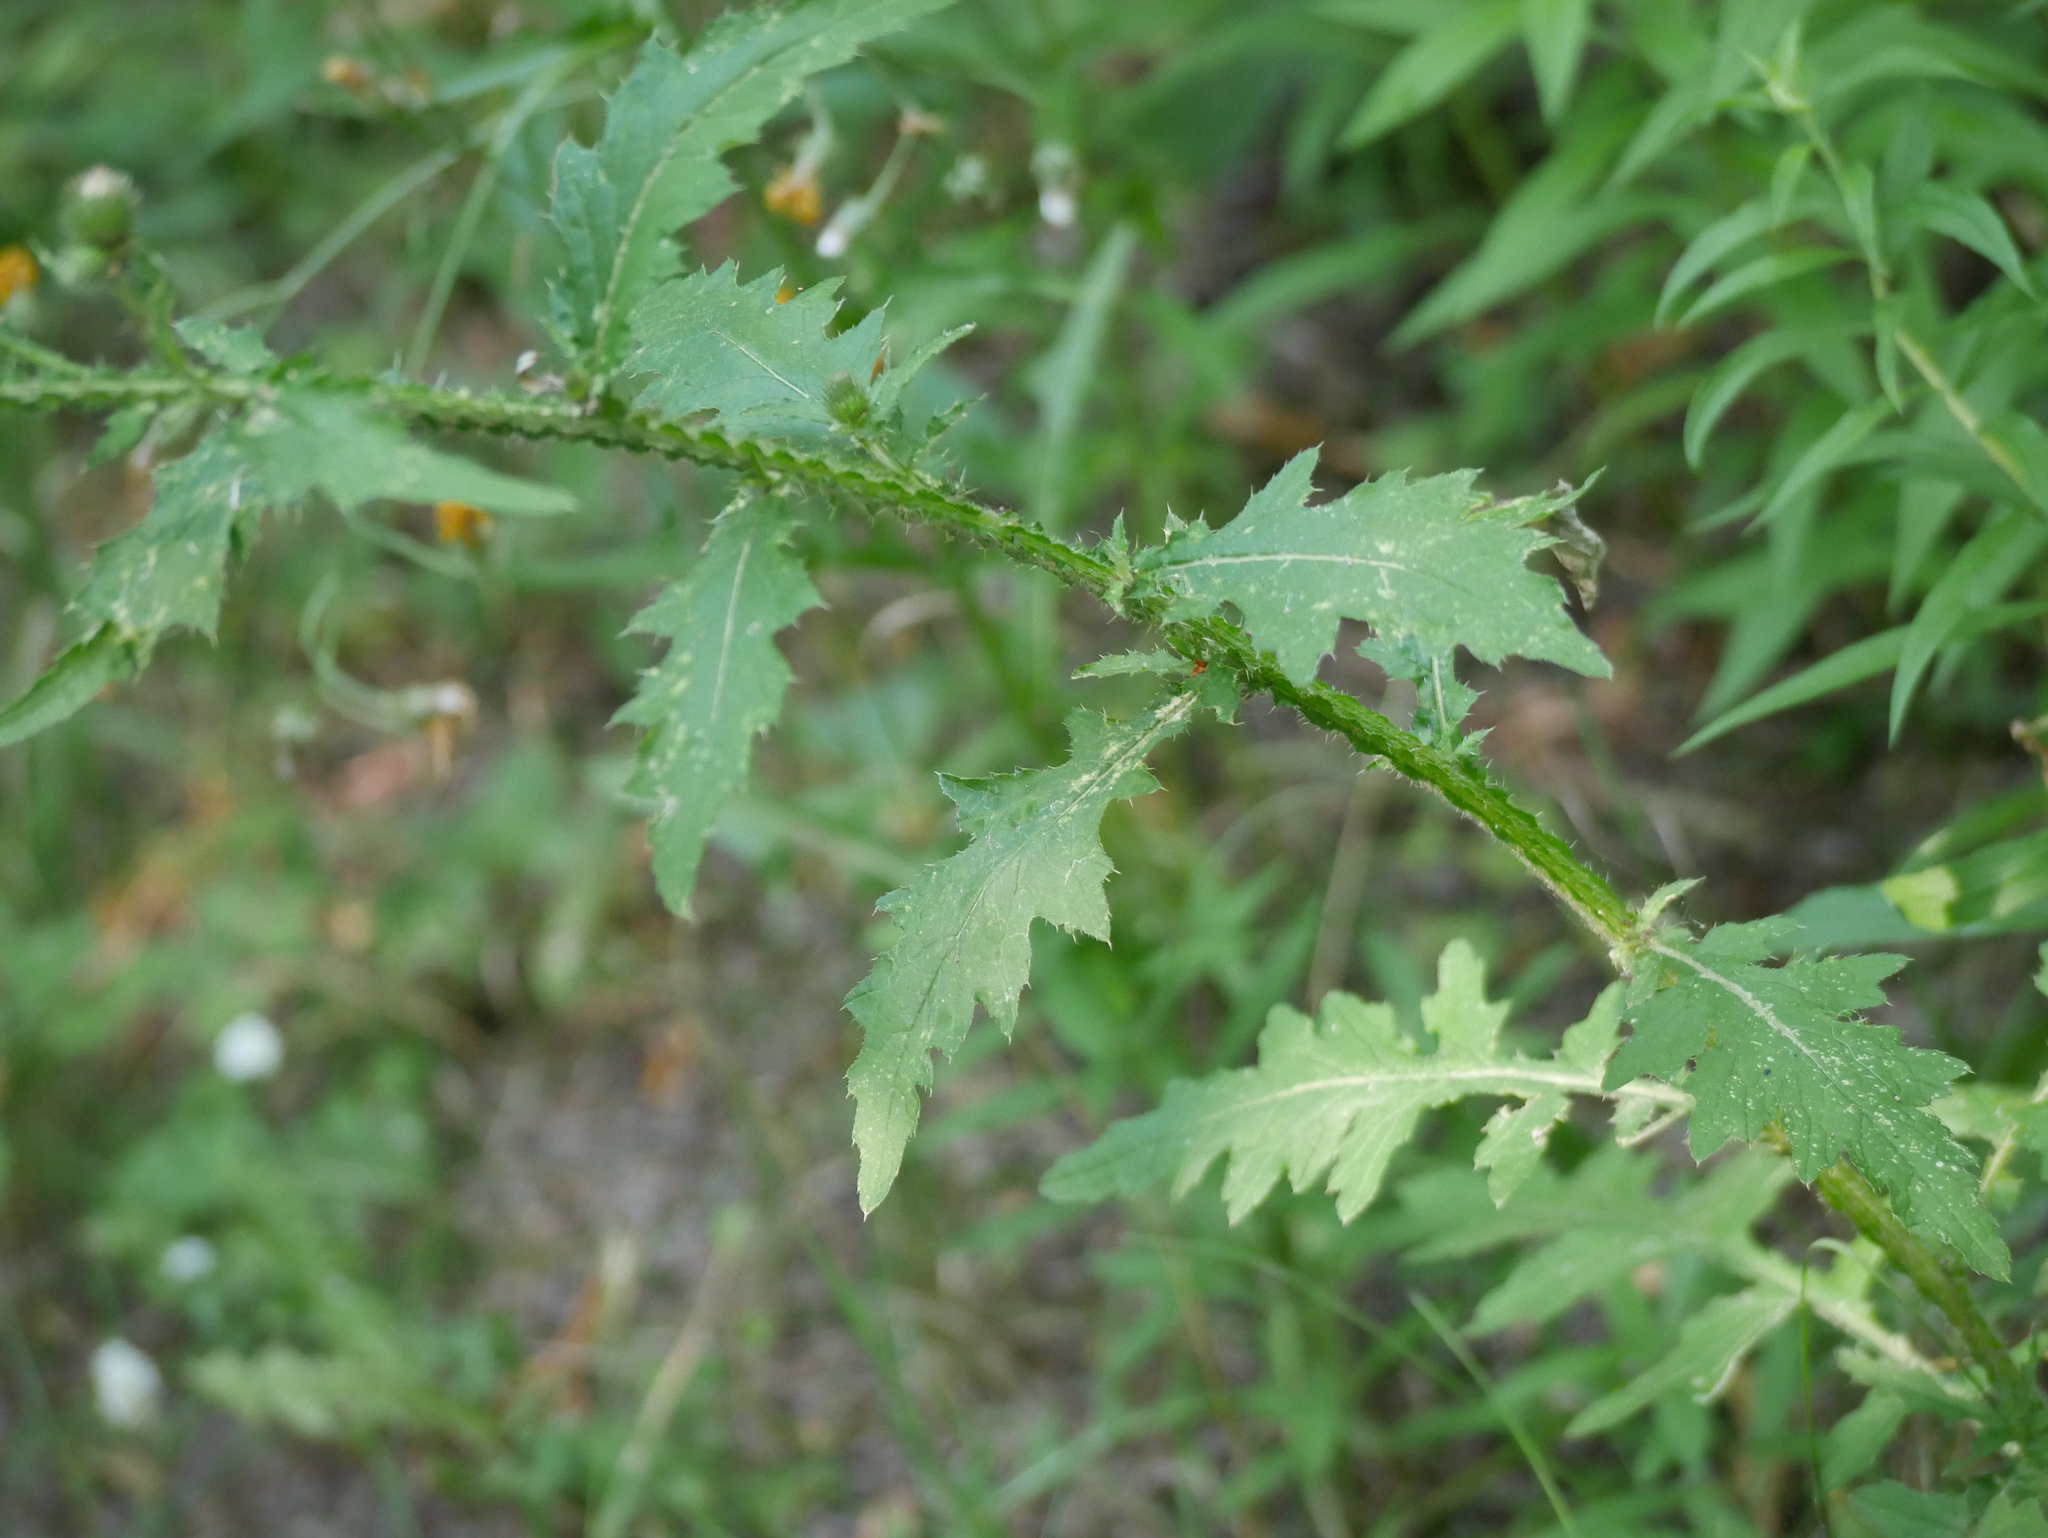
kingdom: Plantae
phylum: Tracheophyta
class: Magnoliopsida
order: Asterales
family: Asteraceae
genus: Carduus
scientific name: Carduus crispus
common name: Welted thistle
